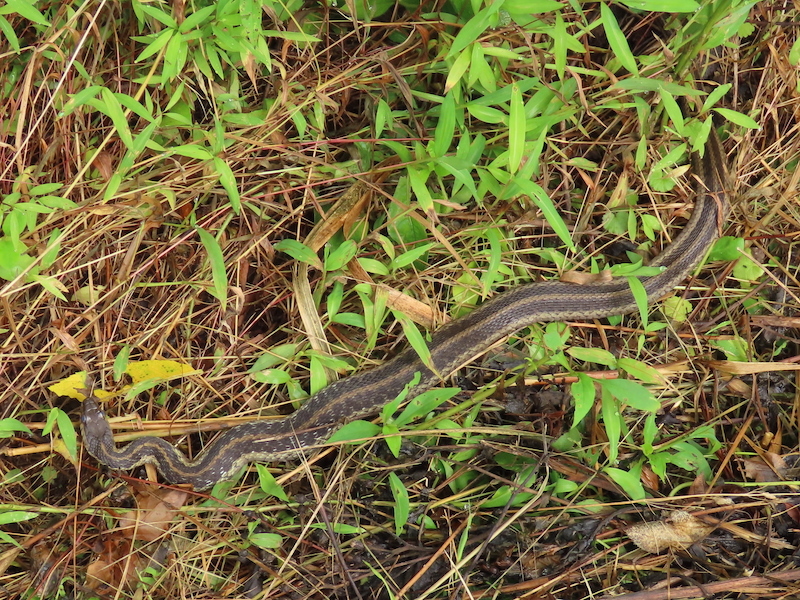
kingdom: Animalia
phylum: Chordata
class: Squamata
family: Colubridae
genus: Thamnophis
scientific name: Thamnophis sirtalis
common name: Common garter snake
